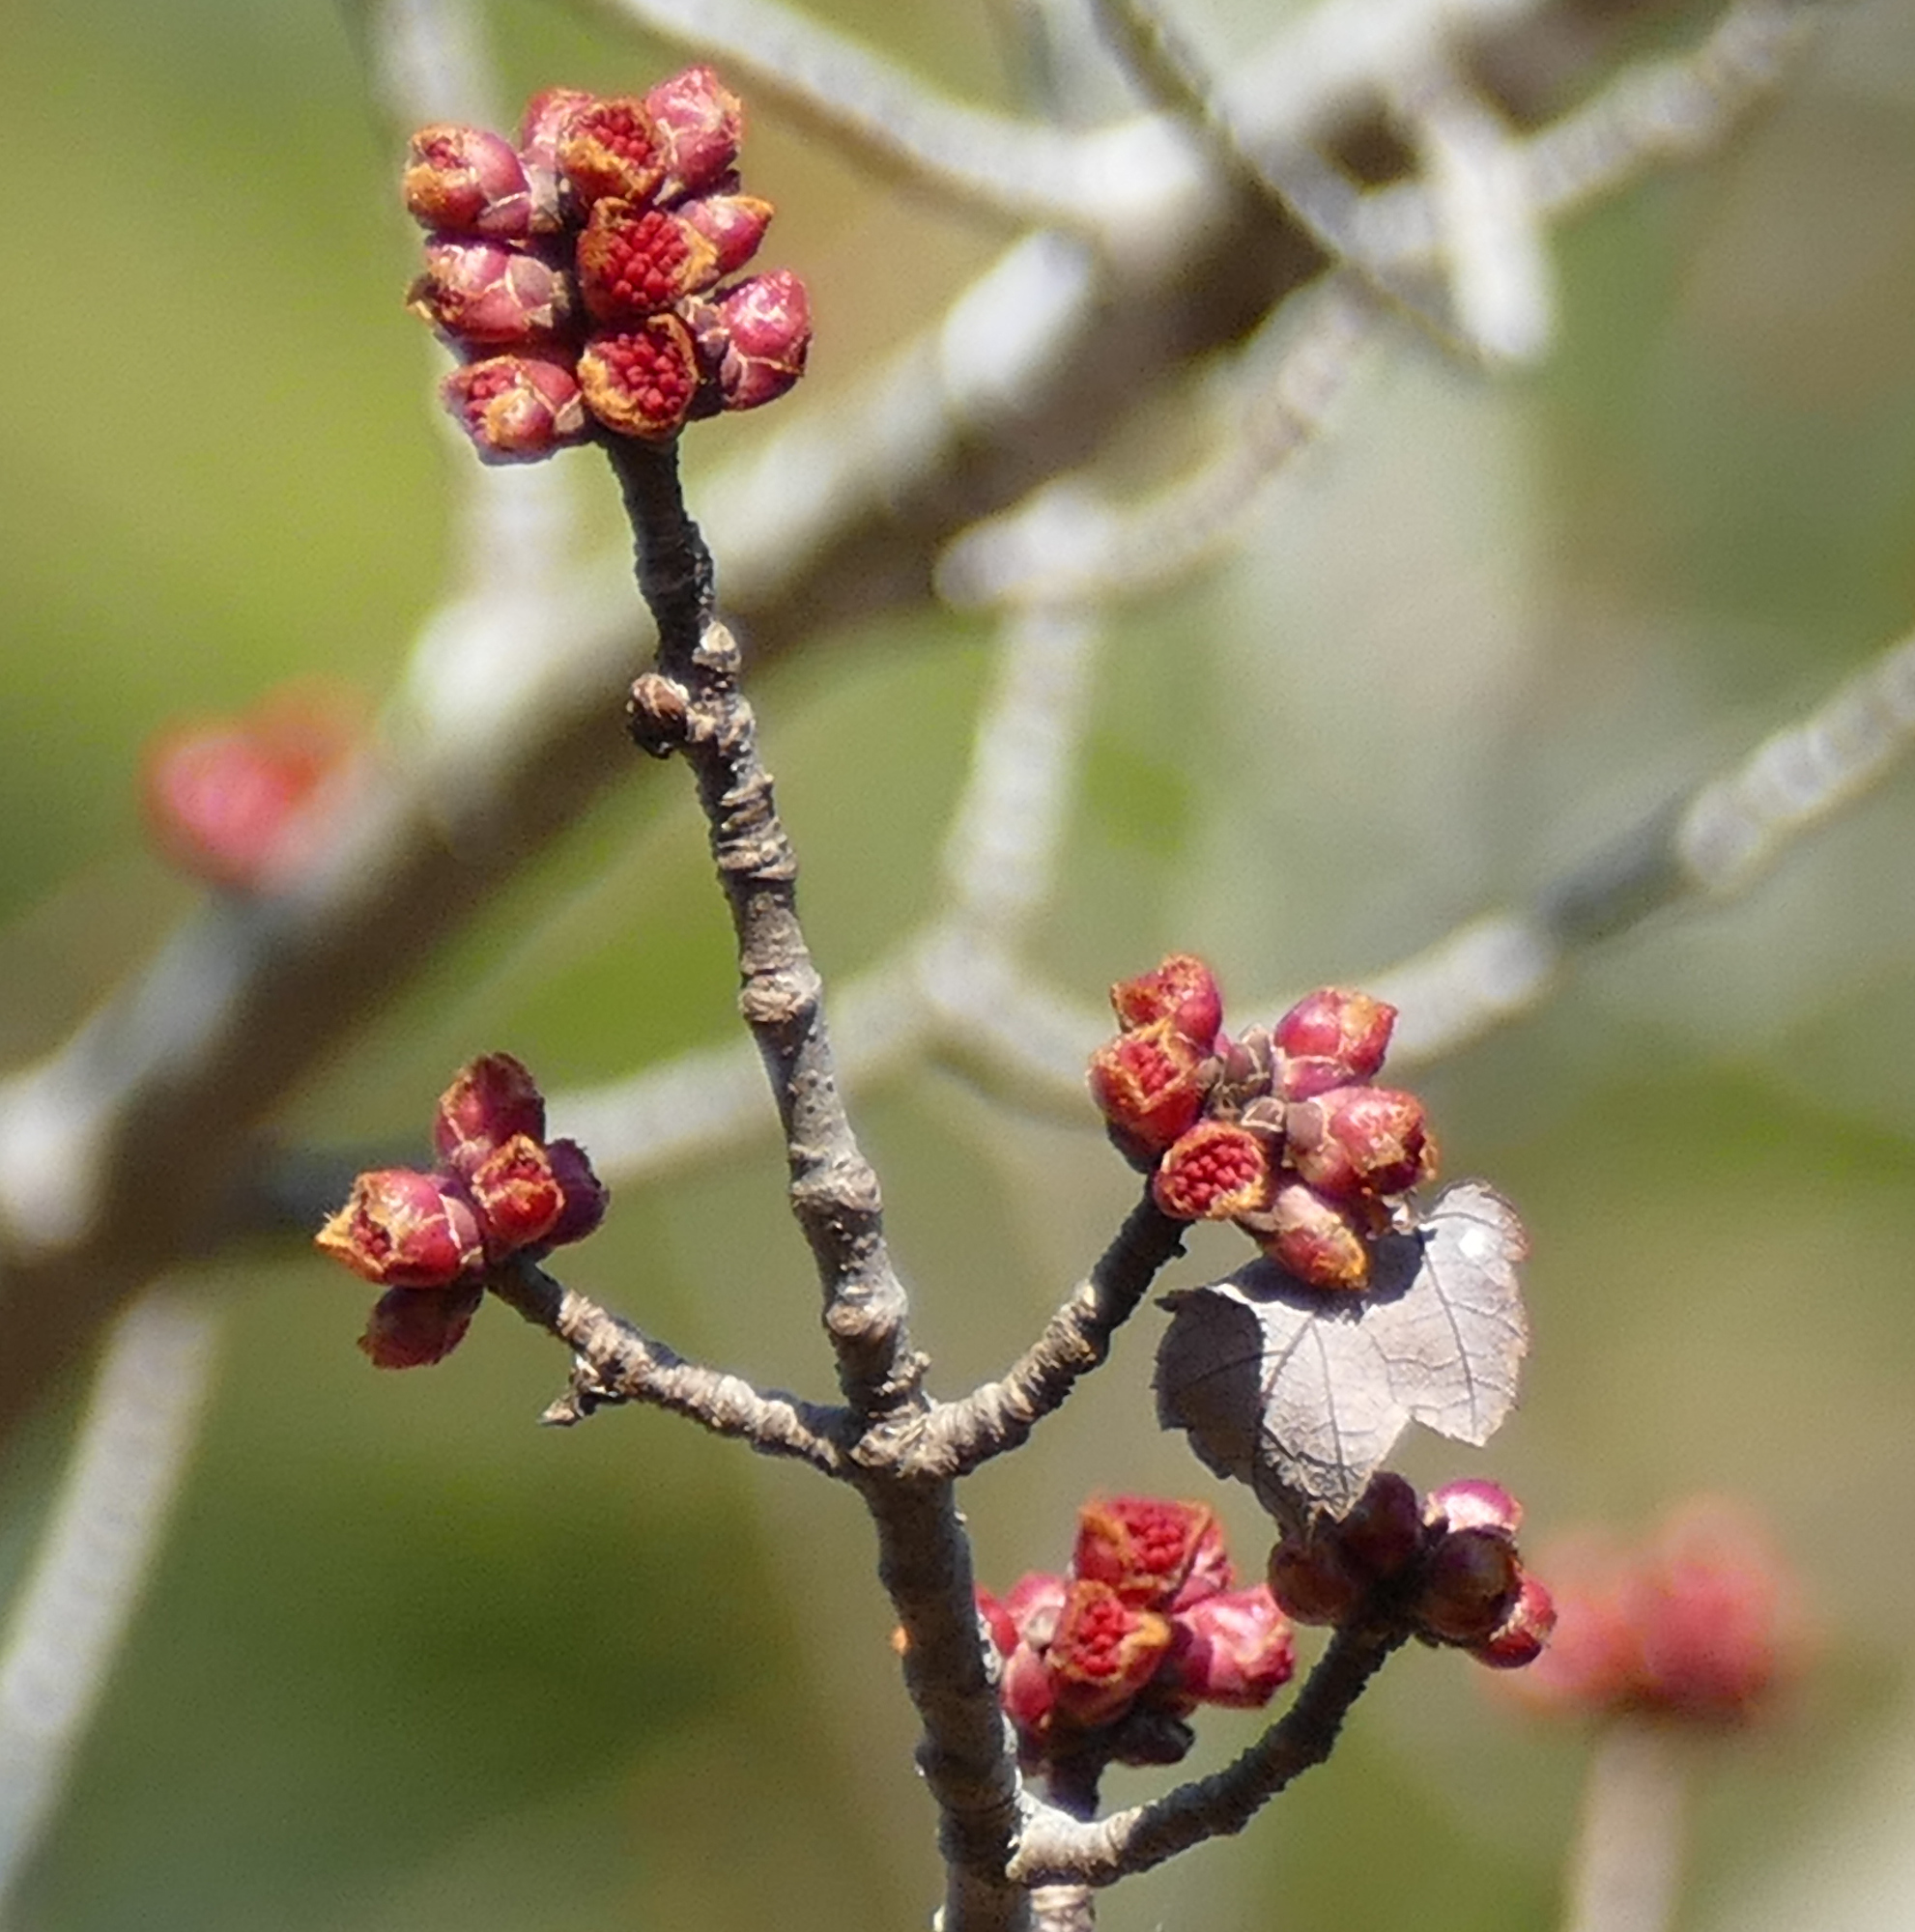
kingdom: Plantae
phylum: Tracheophyta
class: Magnoliopsida
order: Sapindales
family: Sapindaceae
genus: Acer
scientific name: Acer rubrum
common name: Red maple
